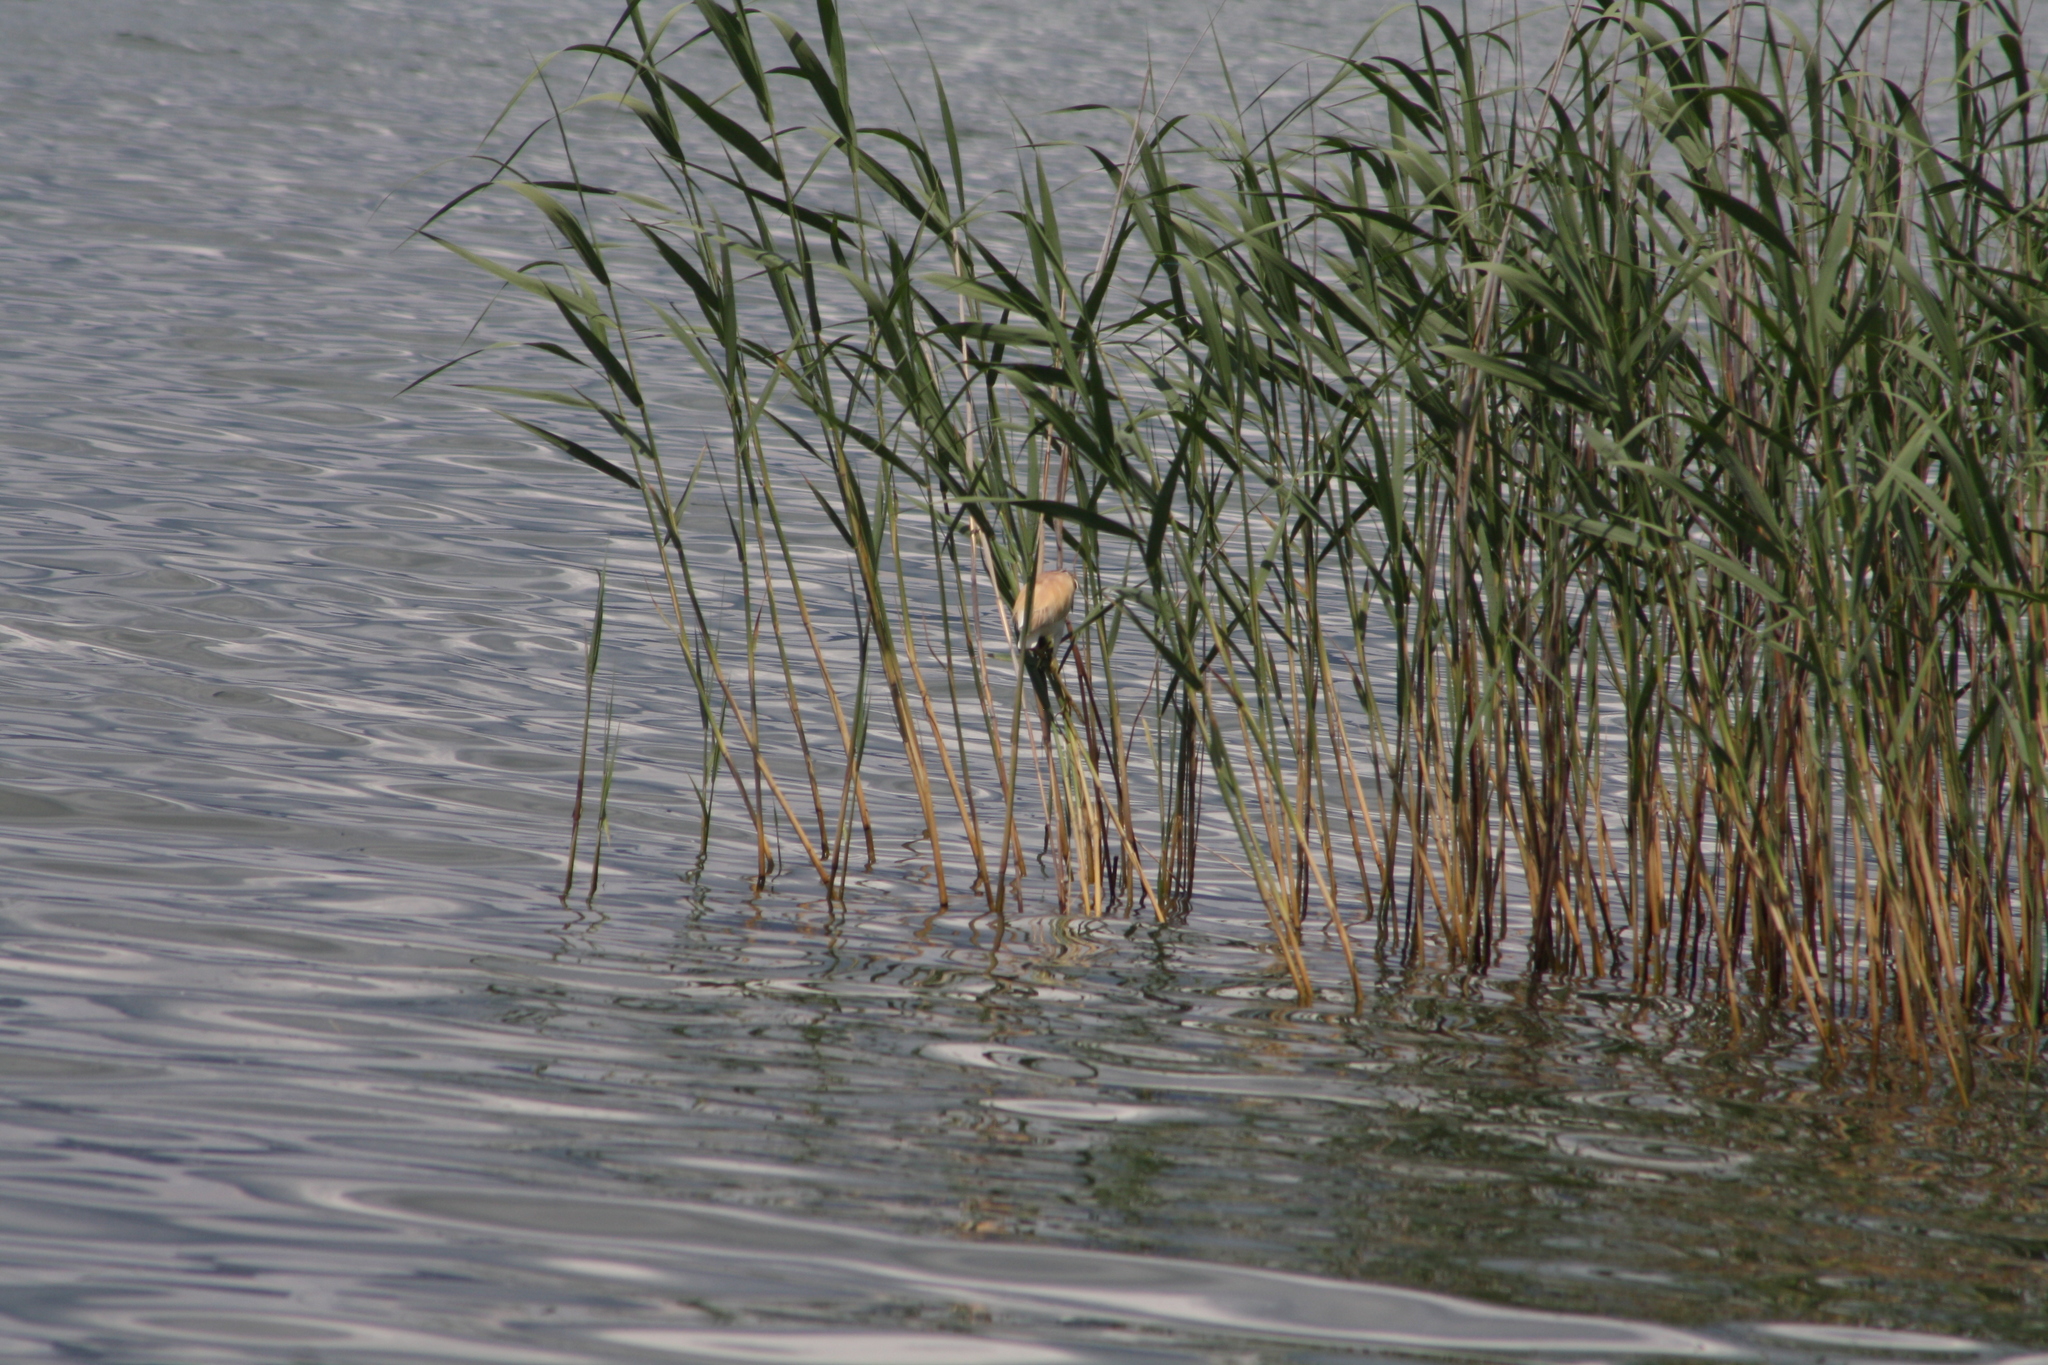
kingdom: Animalia
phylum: Chordata
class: Aves
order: Pelecaniformes
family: Ardeidae
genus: Ardeola
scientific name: Ardeola ralloides
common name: Squacco heron
